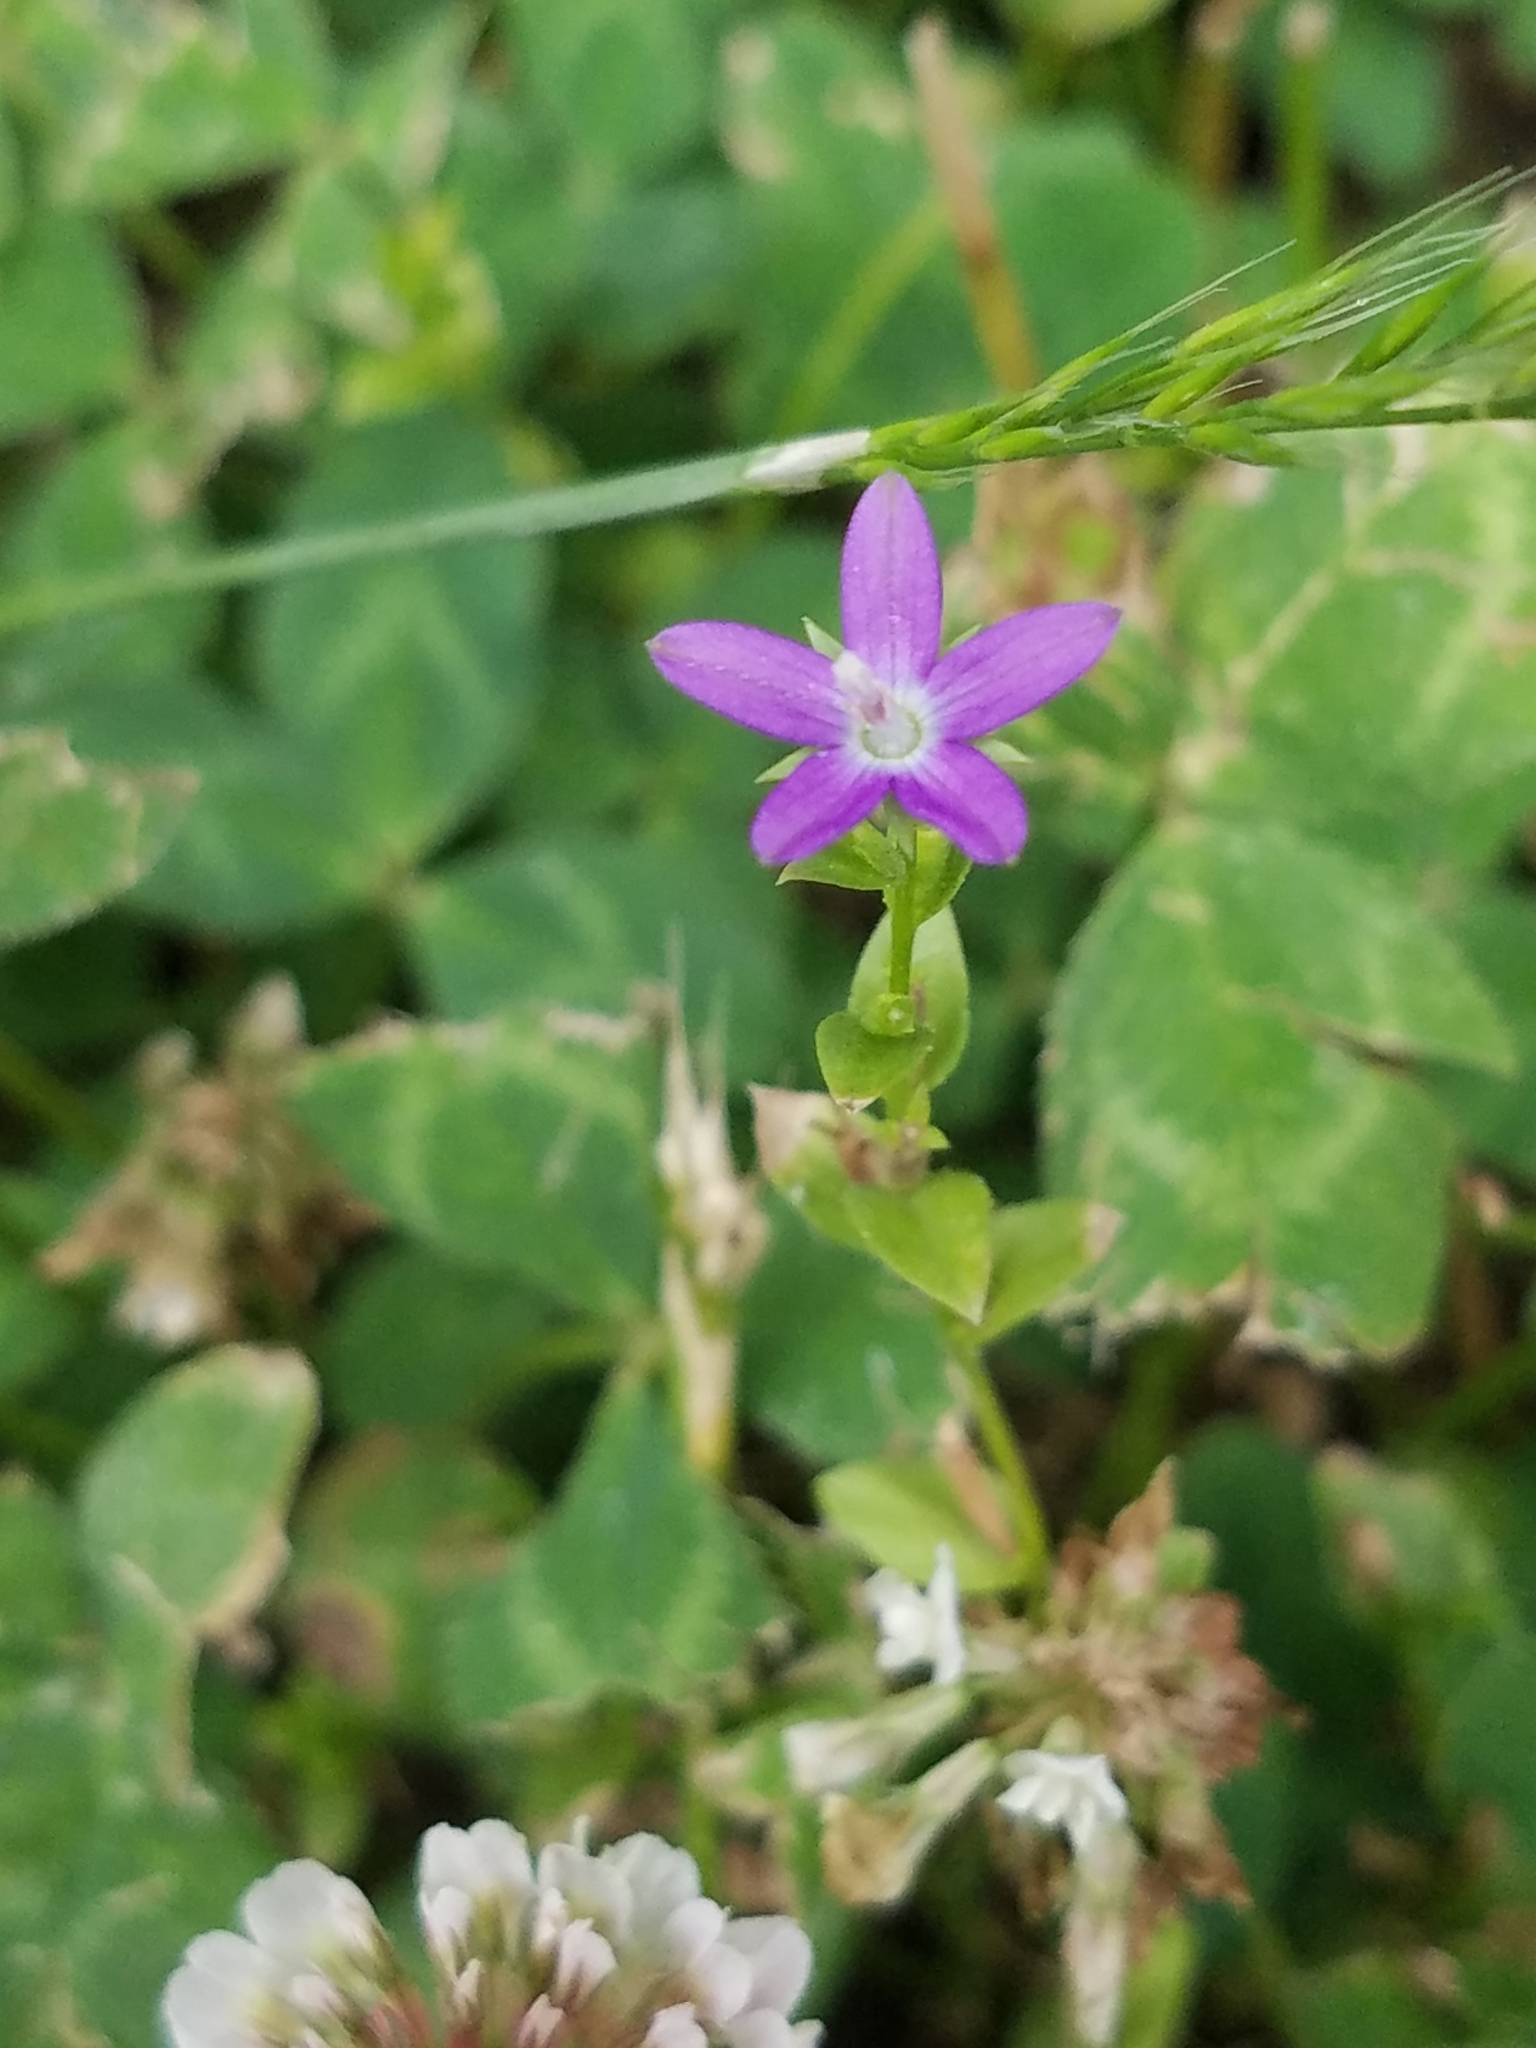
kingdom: Plantae
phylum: Tracheophyta
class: Magnoliopsida
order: Asterales
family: Campanulaceae
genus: Triodanis
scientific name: Triodanis biflora
